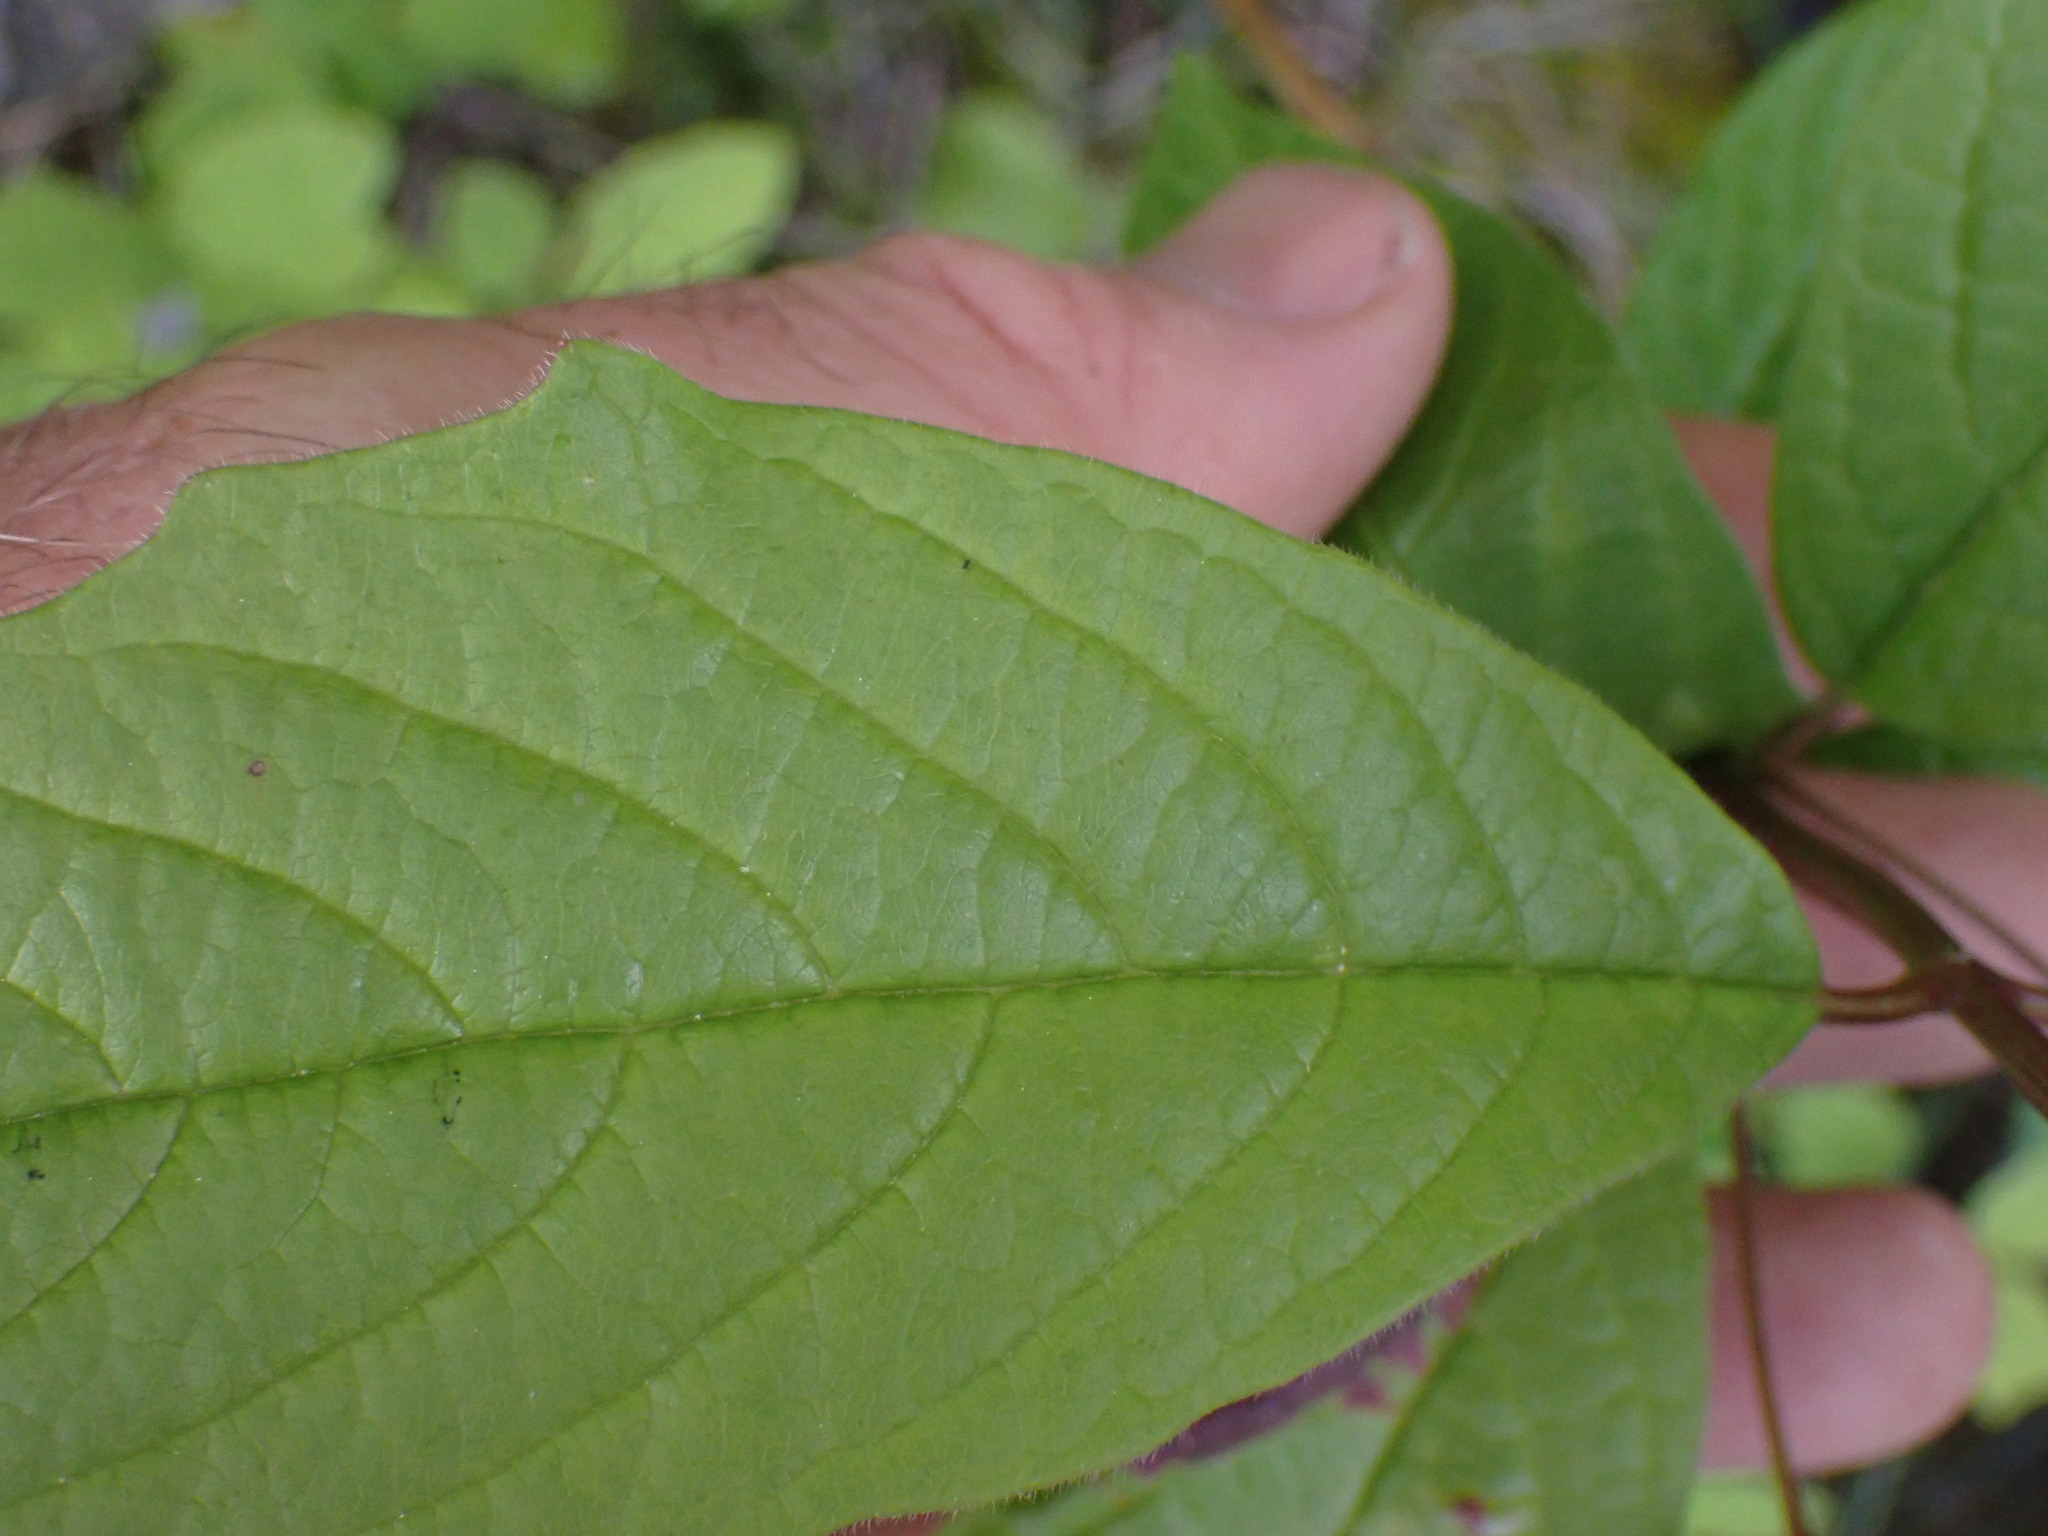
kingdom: Plantae
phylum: Tracheophyta
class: Magnoliopsida
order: Dipsacales
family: Caprifoliaceae
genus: Lonicera
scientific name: Lonicera involucrata
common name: Californian honeysuckle
